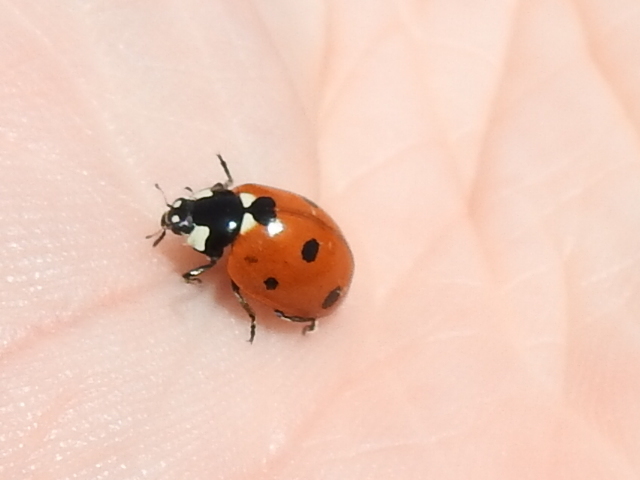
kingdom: Animalia
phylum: Arthropoda
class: Insecta
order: Coleoptera
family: Coccinellidae
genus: Coccinella
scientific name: Coccinella septempunctata
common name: Sevenspotted lady beetle
